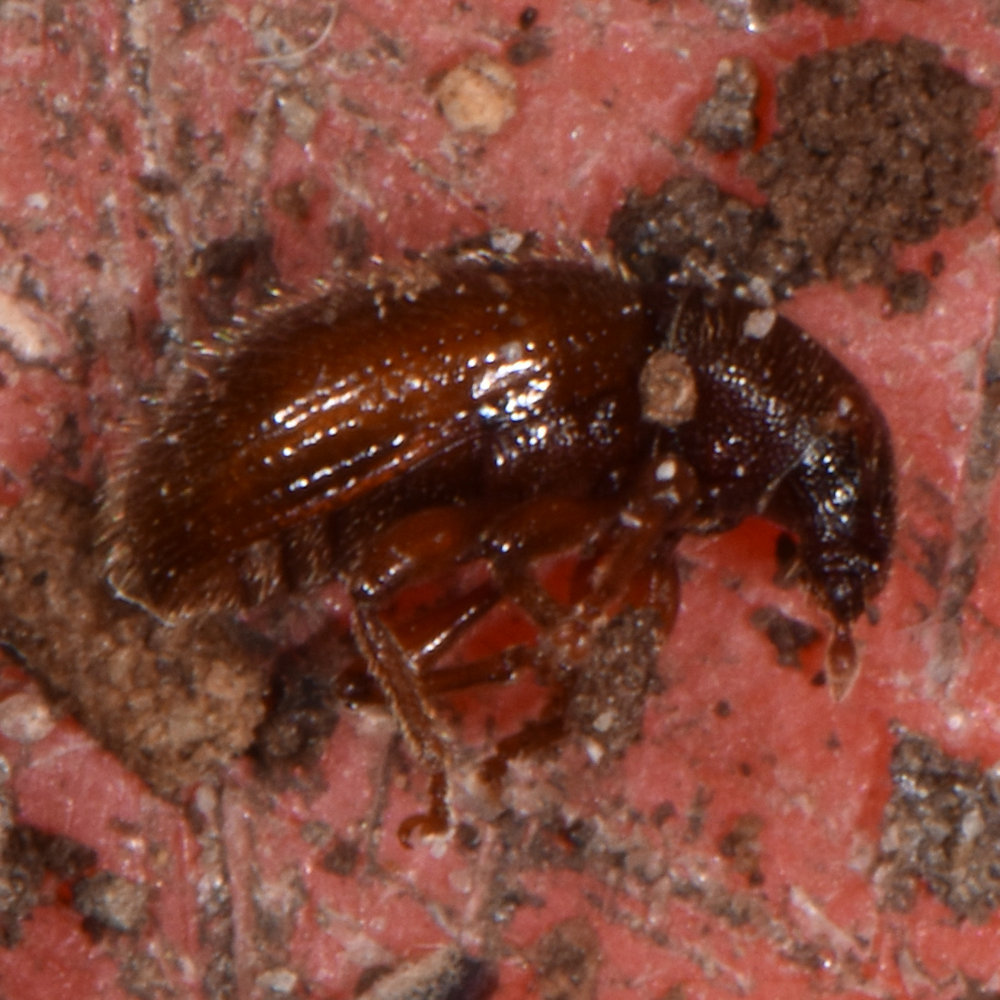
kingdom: Animalia
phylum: Arthropoda
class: Insecta
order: Coleoptera
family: Curculionidae
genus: Exomias
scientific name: Exomias pellucidus
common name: Hairy spider weevil
